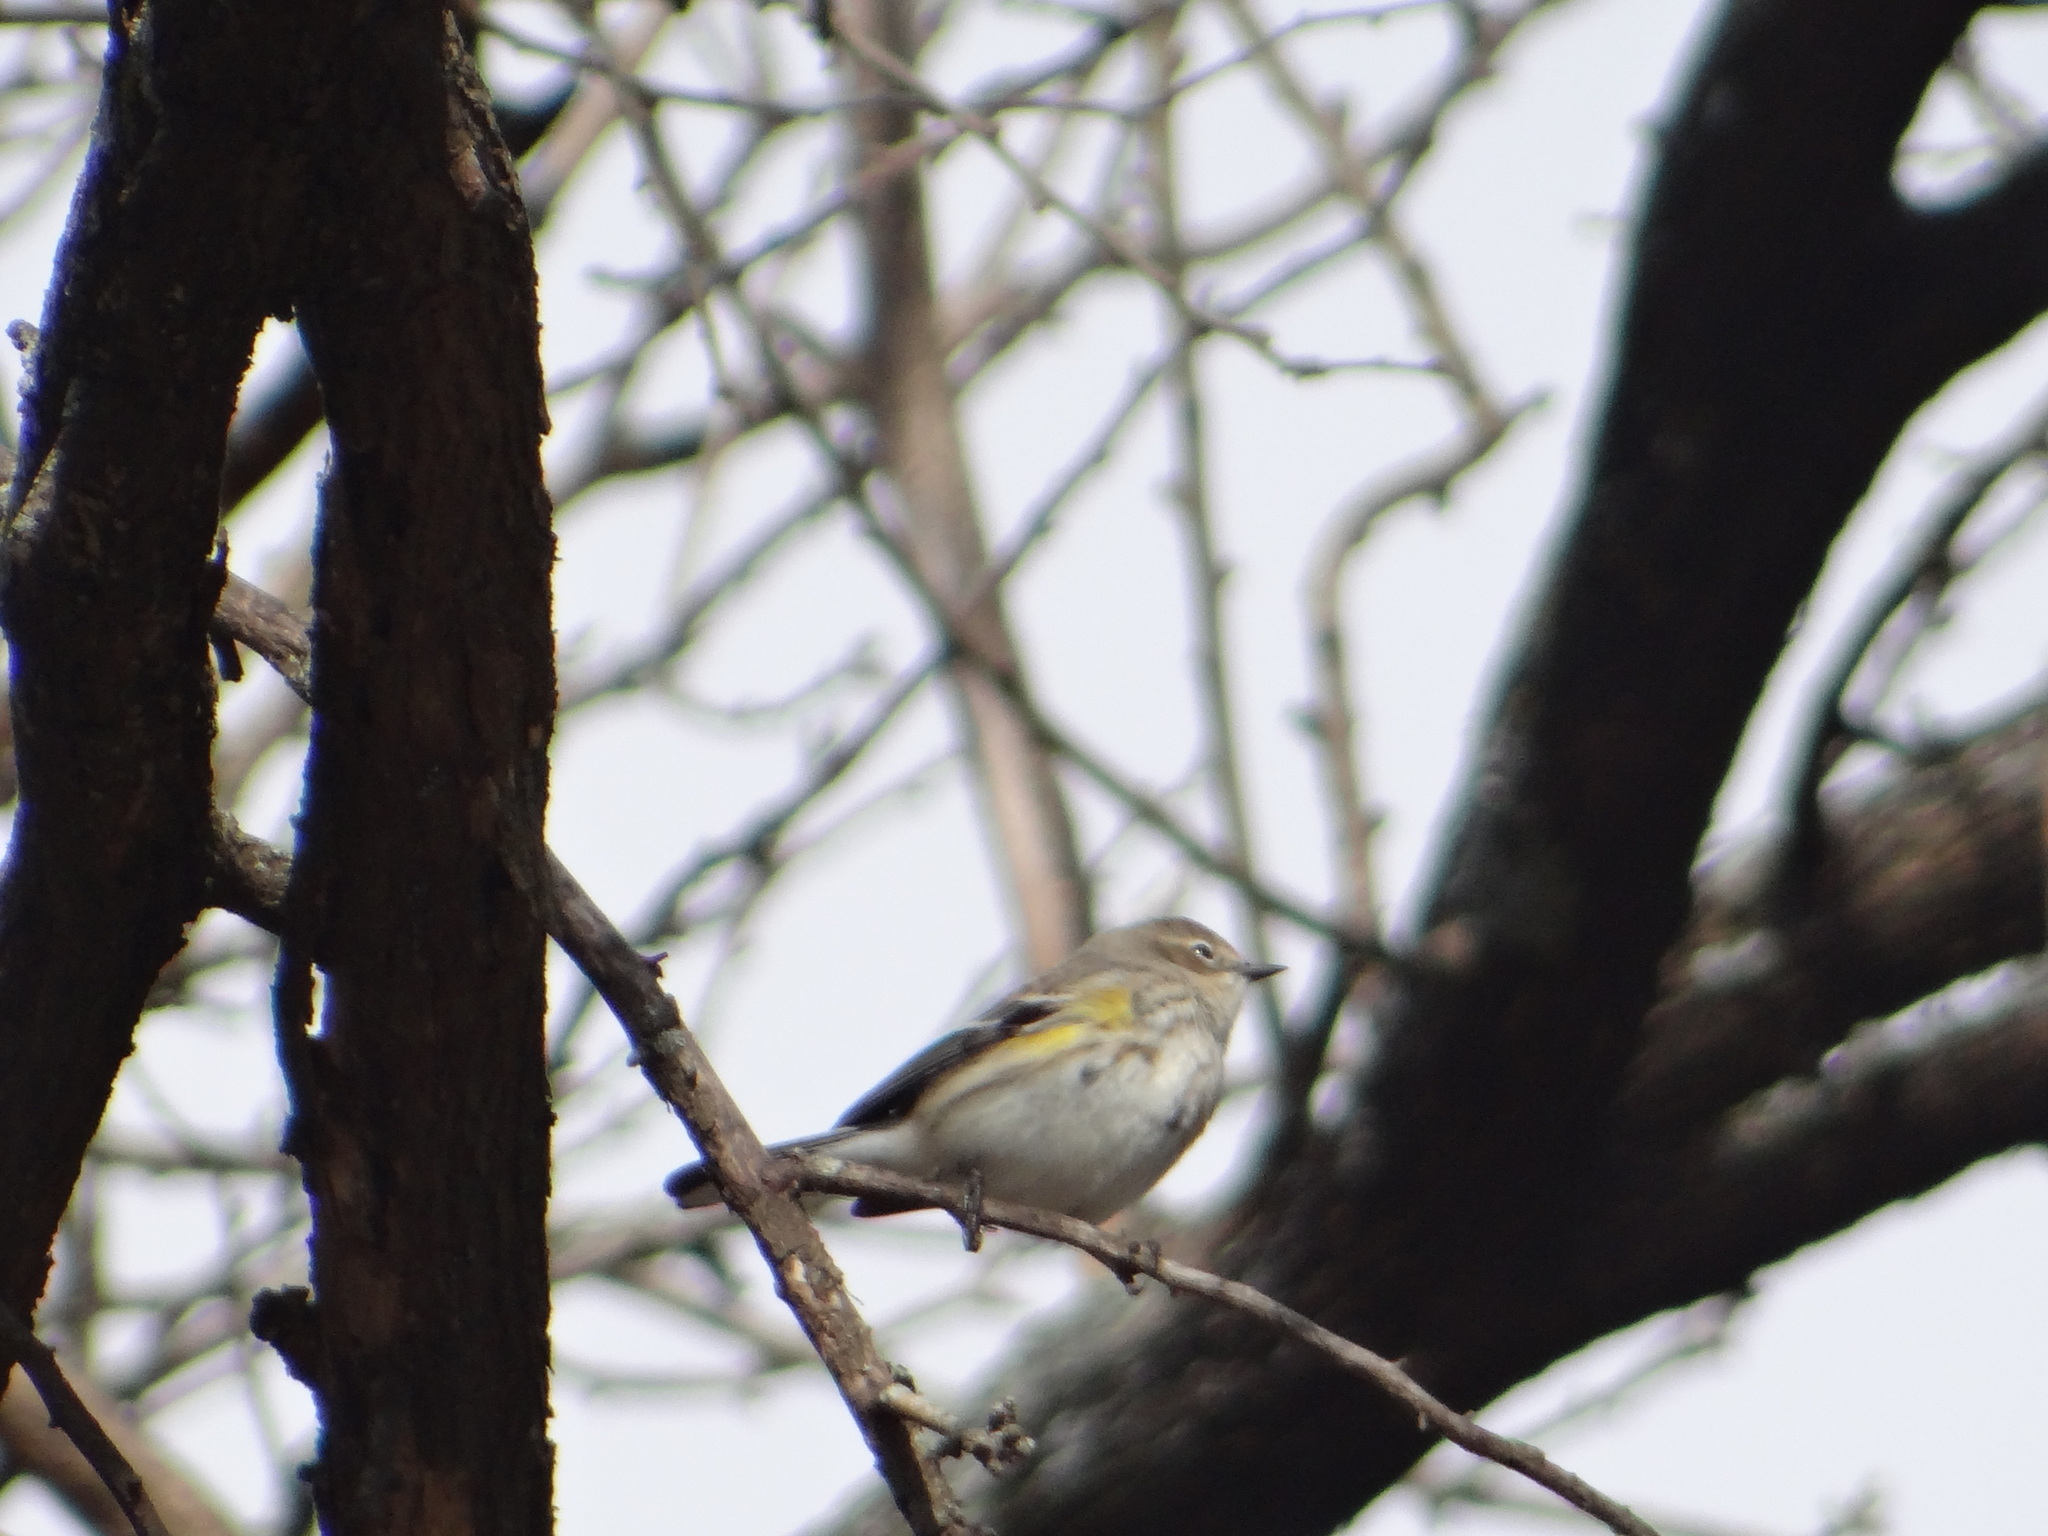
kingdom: Animalia
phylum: Chordata
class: Aves
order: Passeriformes
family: Parulidae
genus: Setophaga
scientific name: Setophaga coronata
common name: Myrtle warbler
